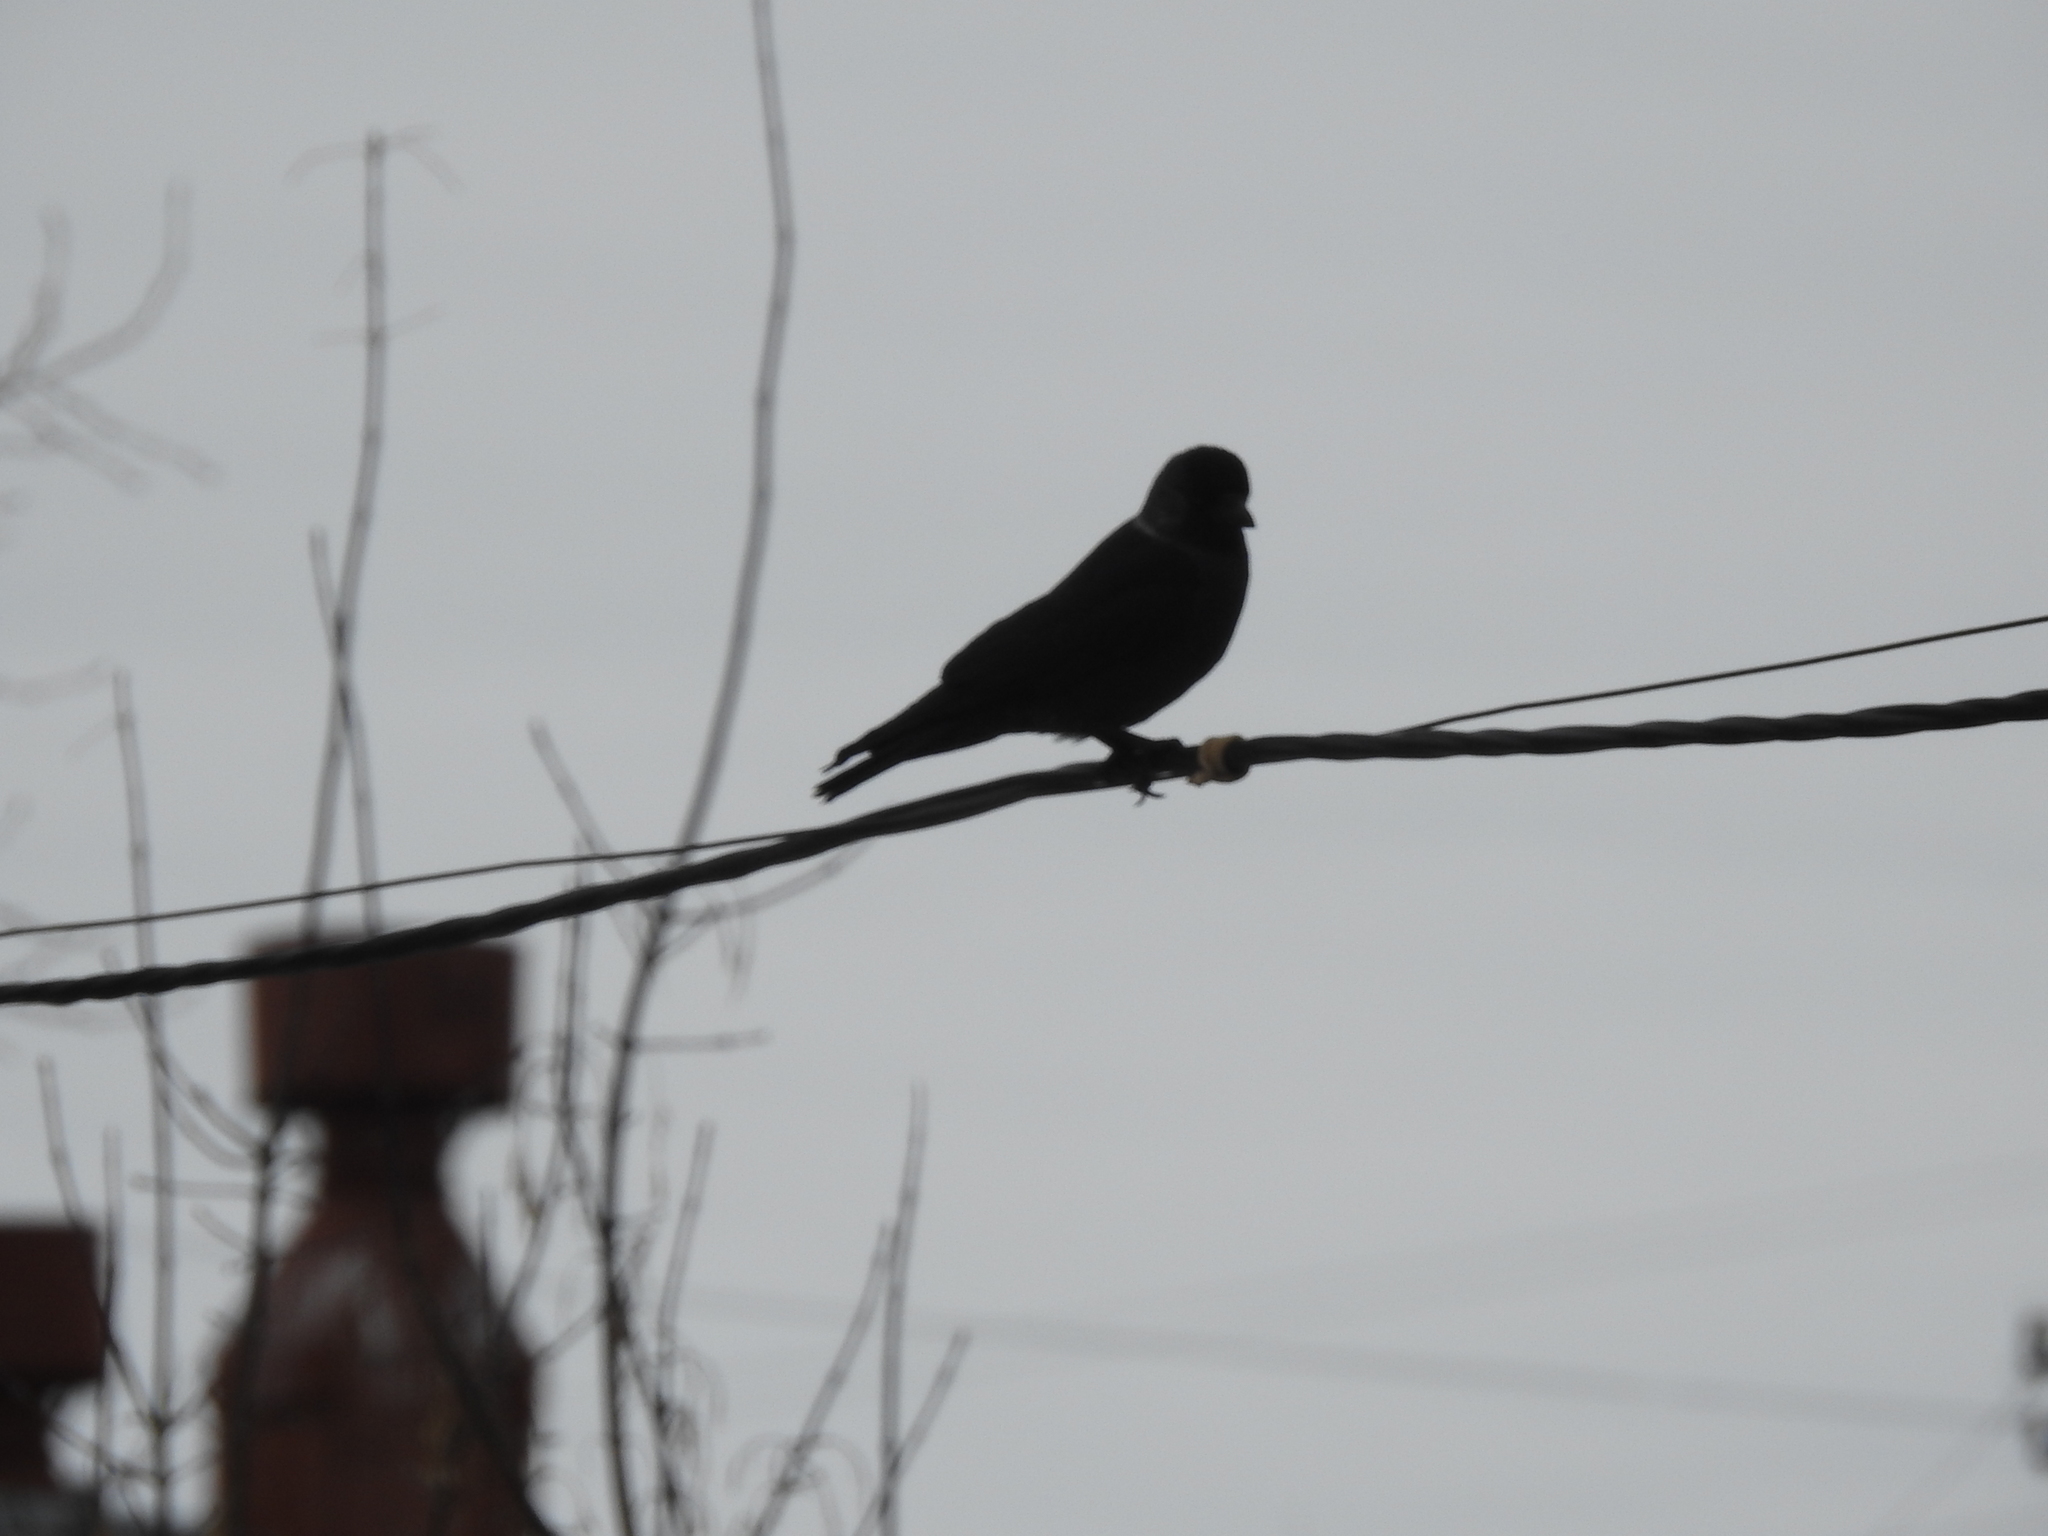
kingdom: Animalia
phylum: Chordata
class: Aves
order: Passeriformes
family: Corvidae
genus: Coloeus
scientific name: Coloeus monedula
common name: Western jackdaw
